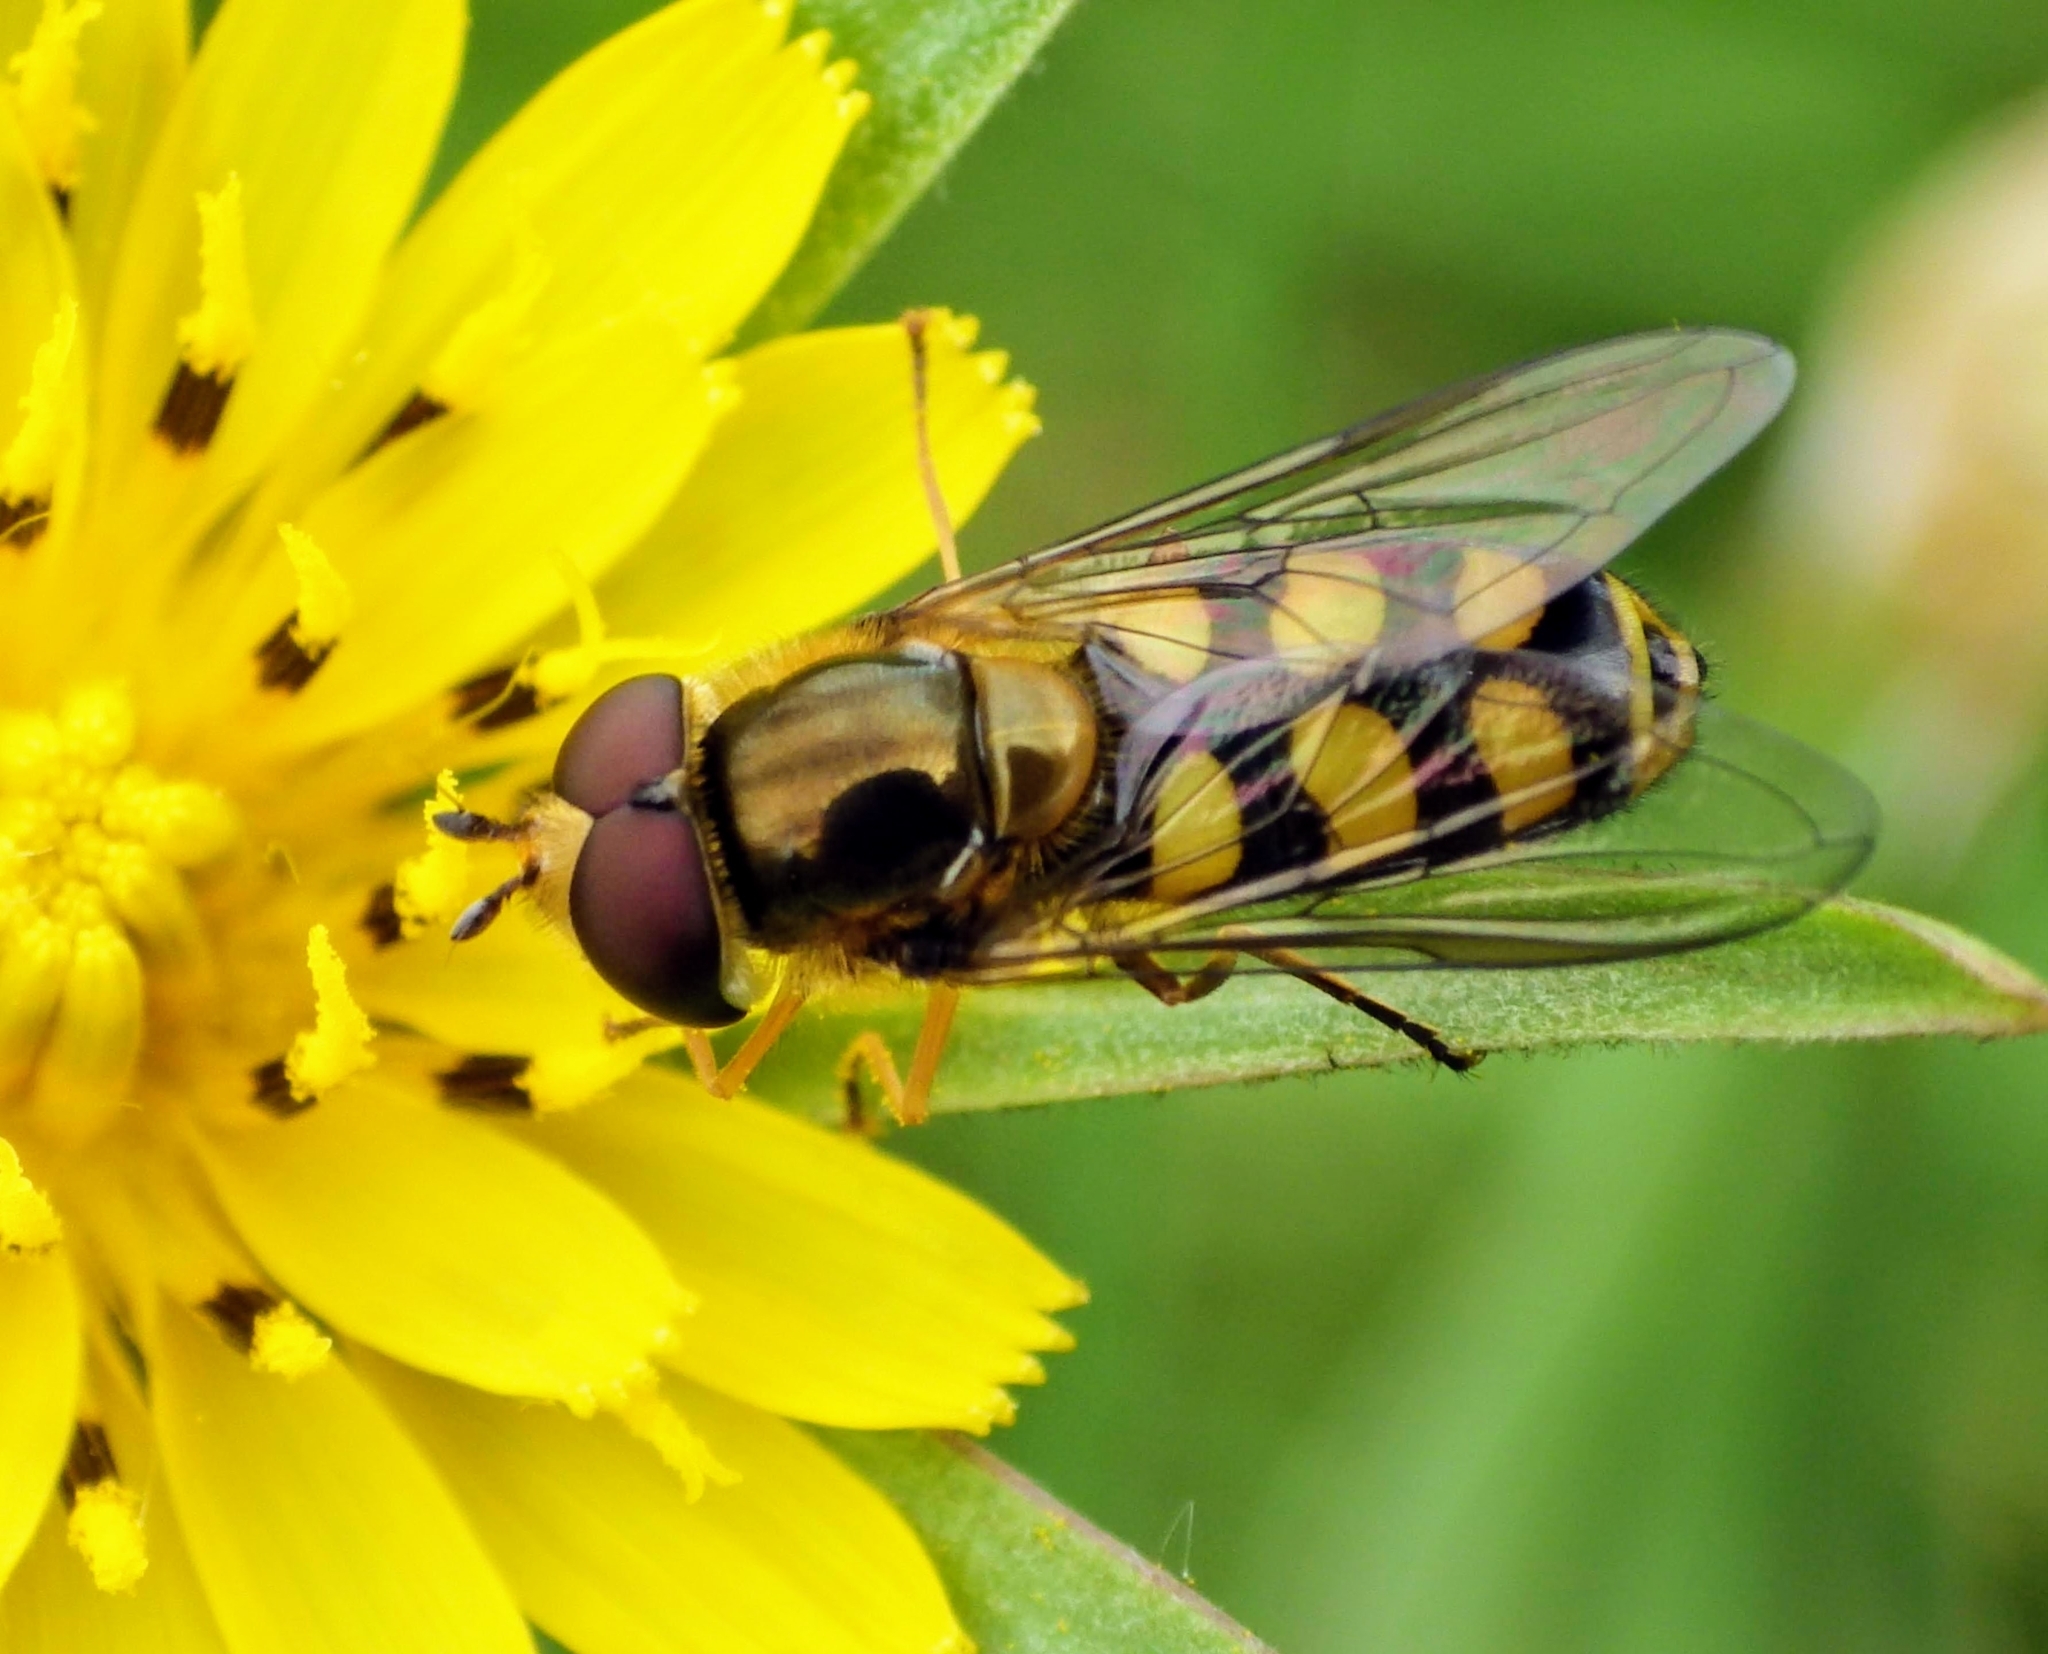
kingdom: Animalia
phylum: Arthropoda
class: Insecta
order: Diptera
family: Syrphidae
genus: Eupeodes
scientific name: Eupeodes
